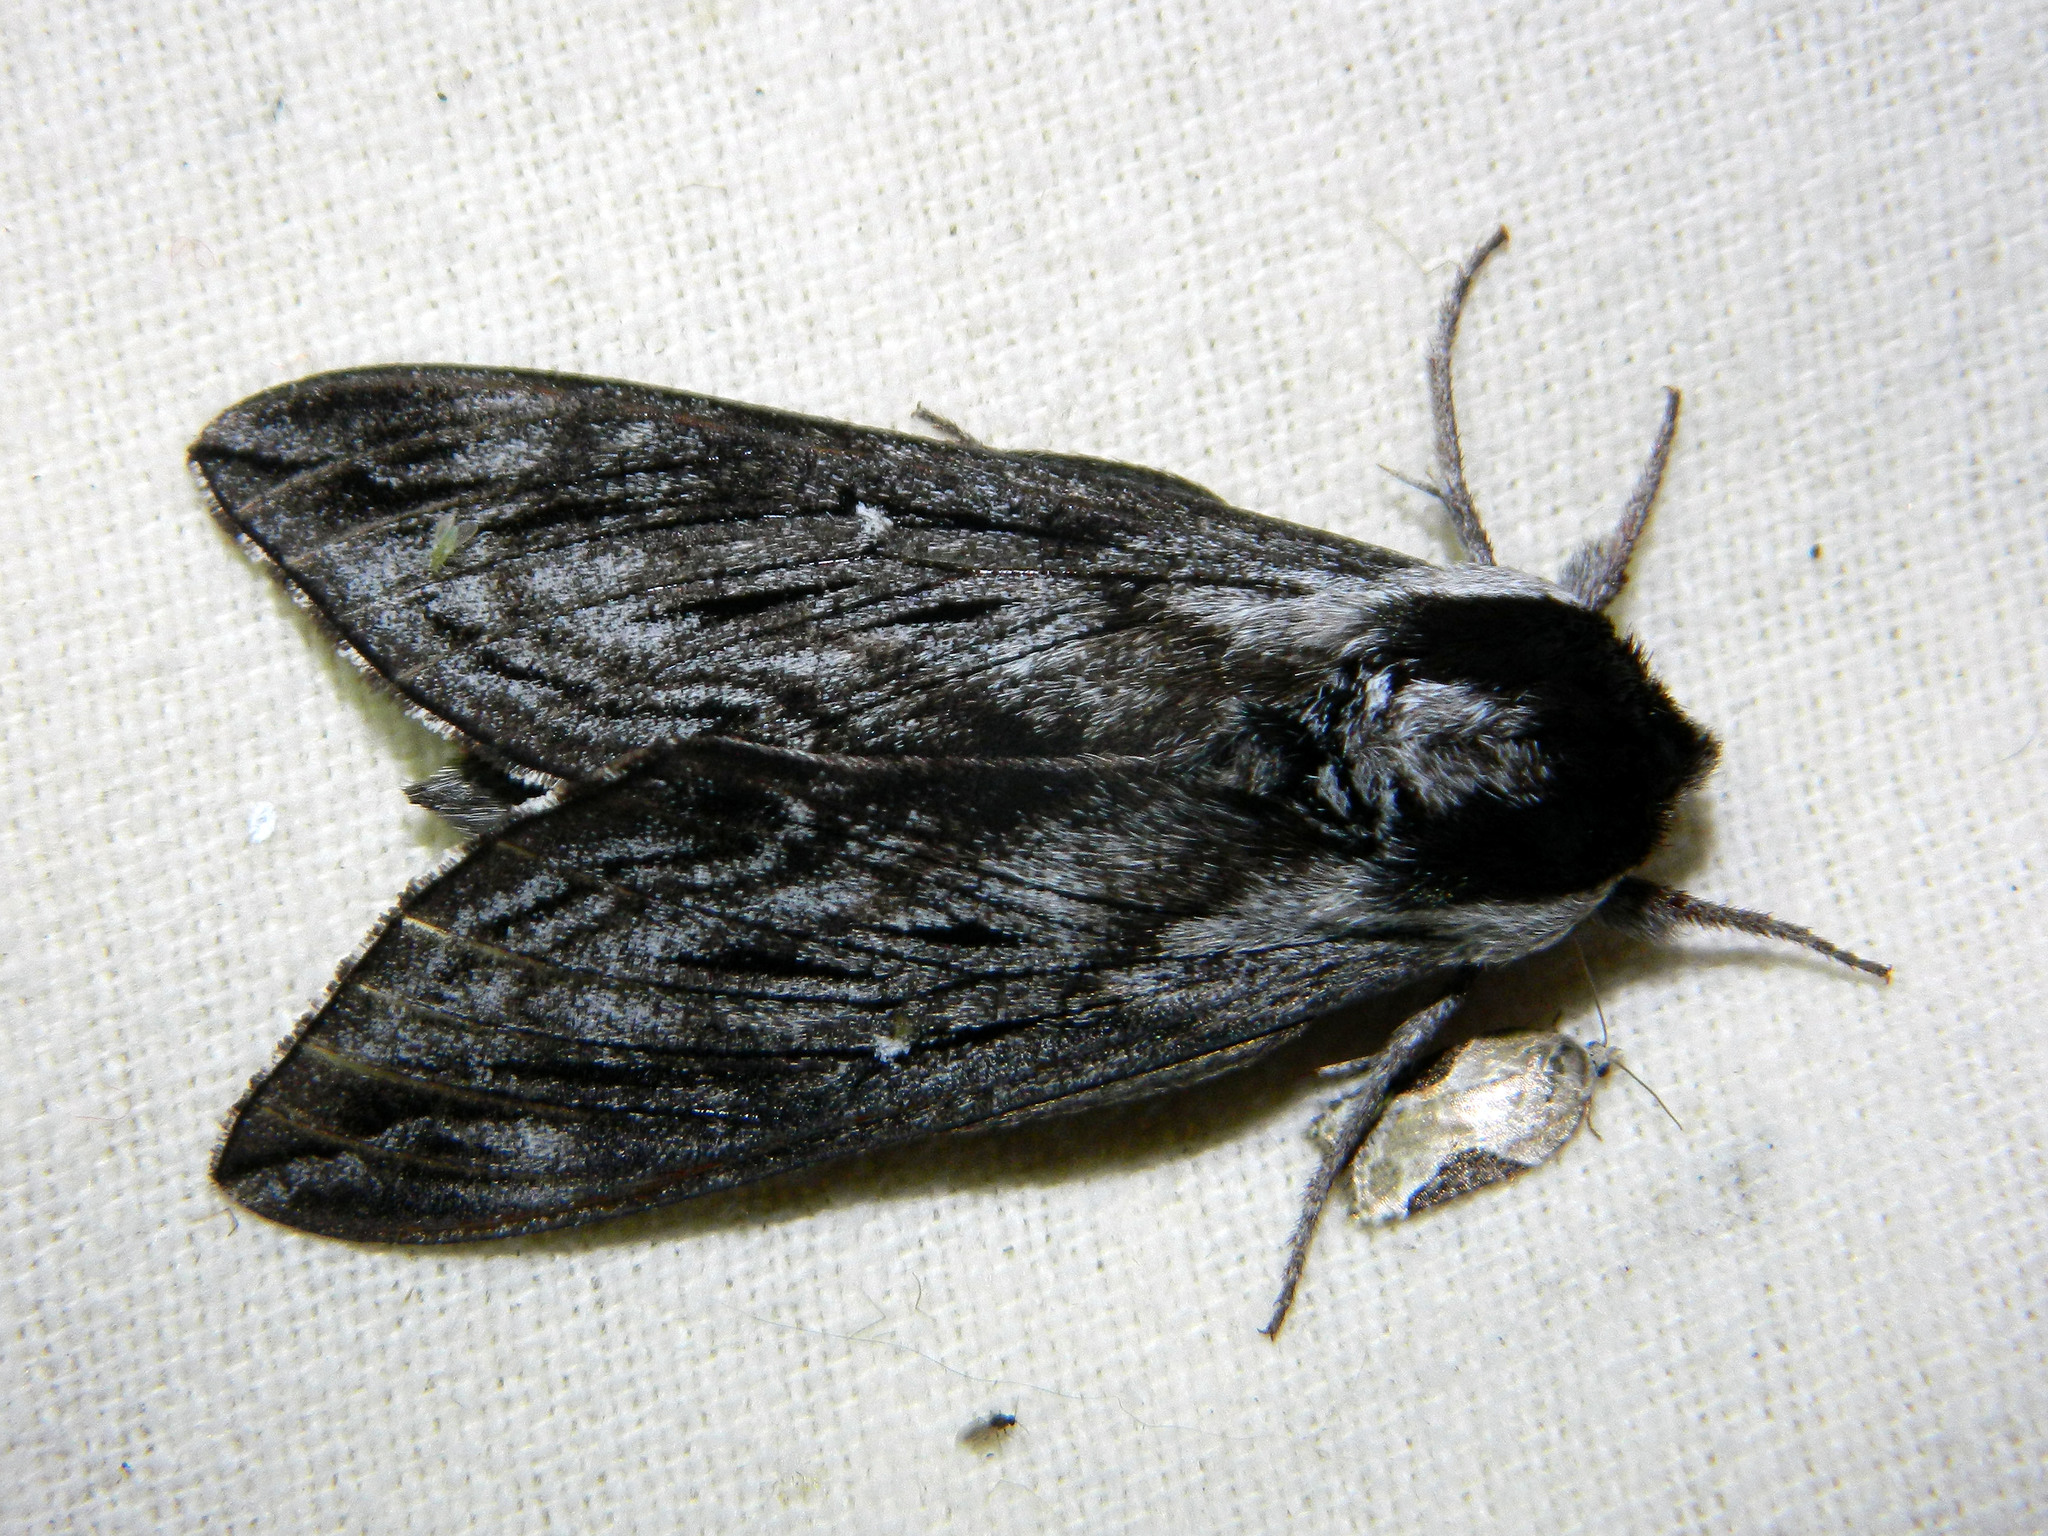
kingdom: Animalia
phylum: Arthropoda
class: Insecta
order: Lepidoptera
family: Sphingidae
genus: Sphinx
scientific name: Sphinx poecila
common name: Northern apple sphinx
